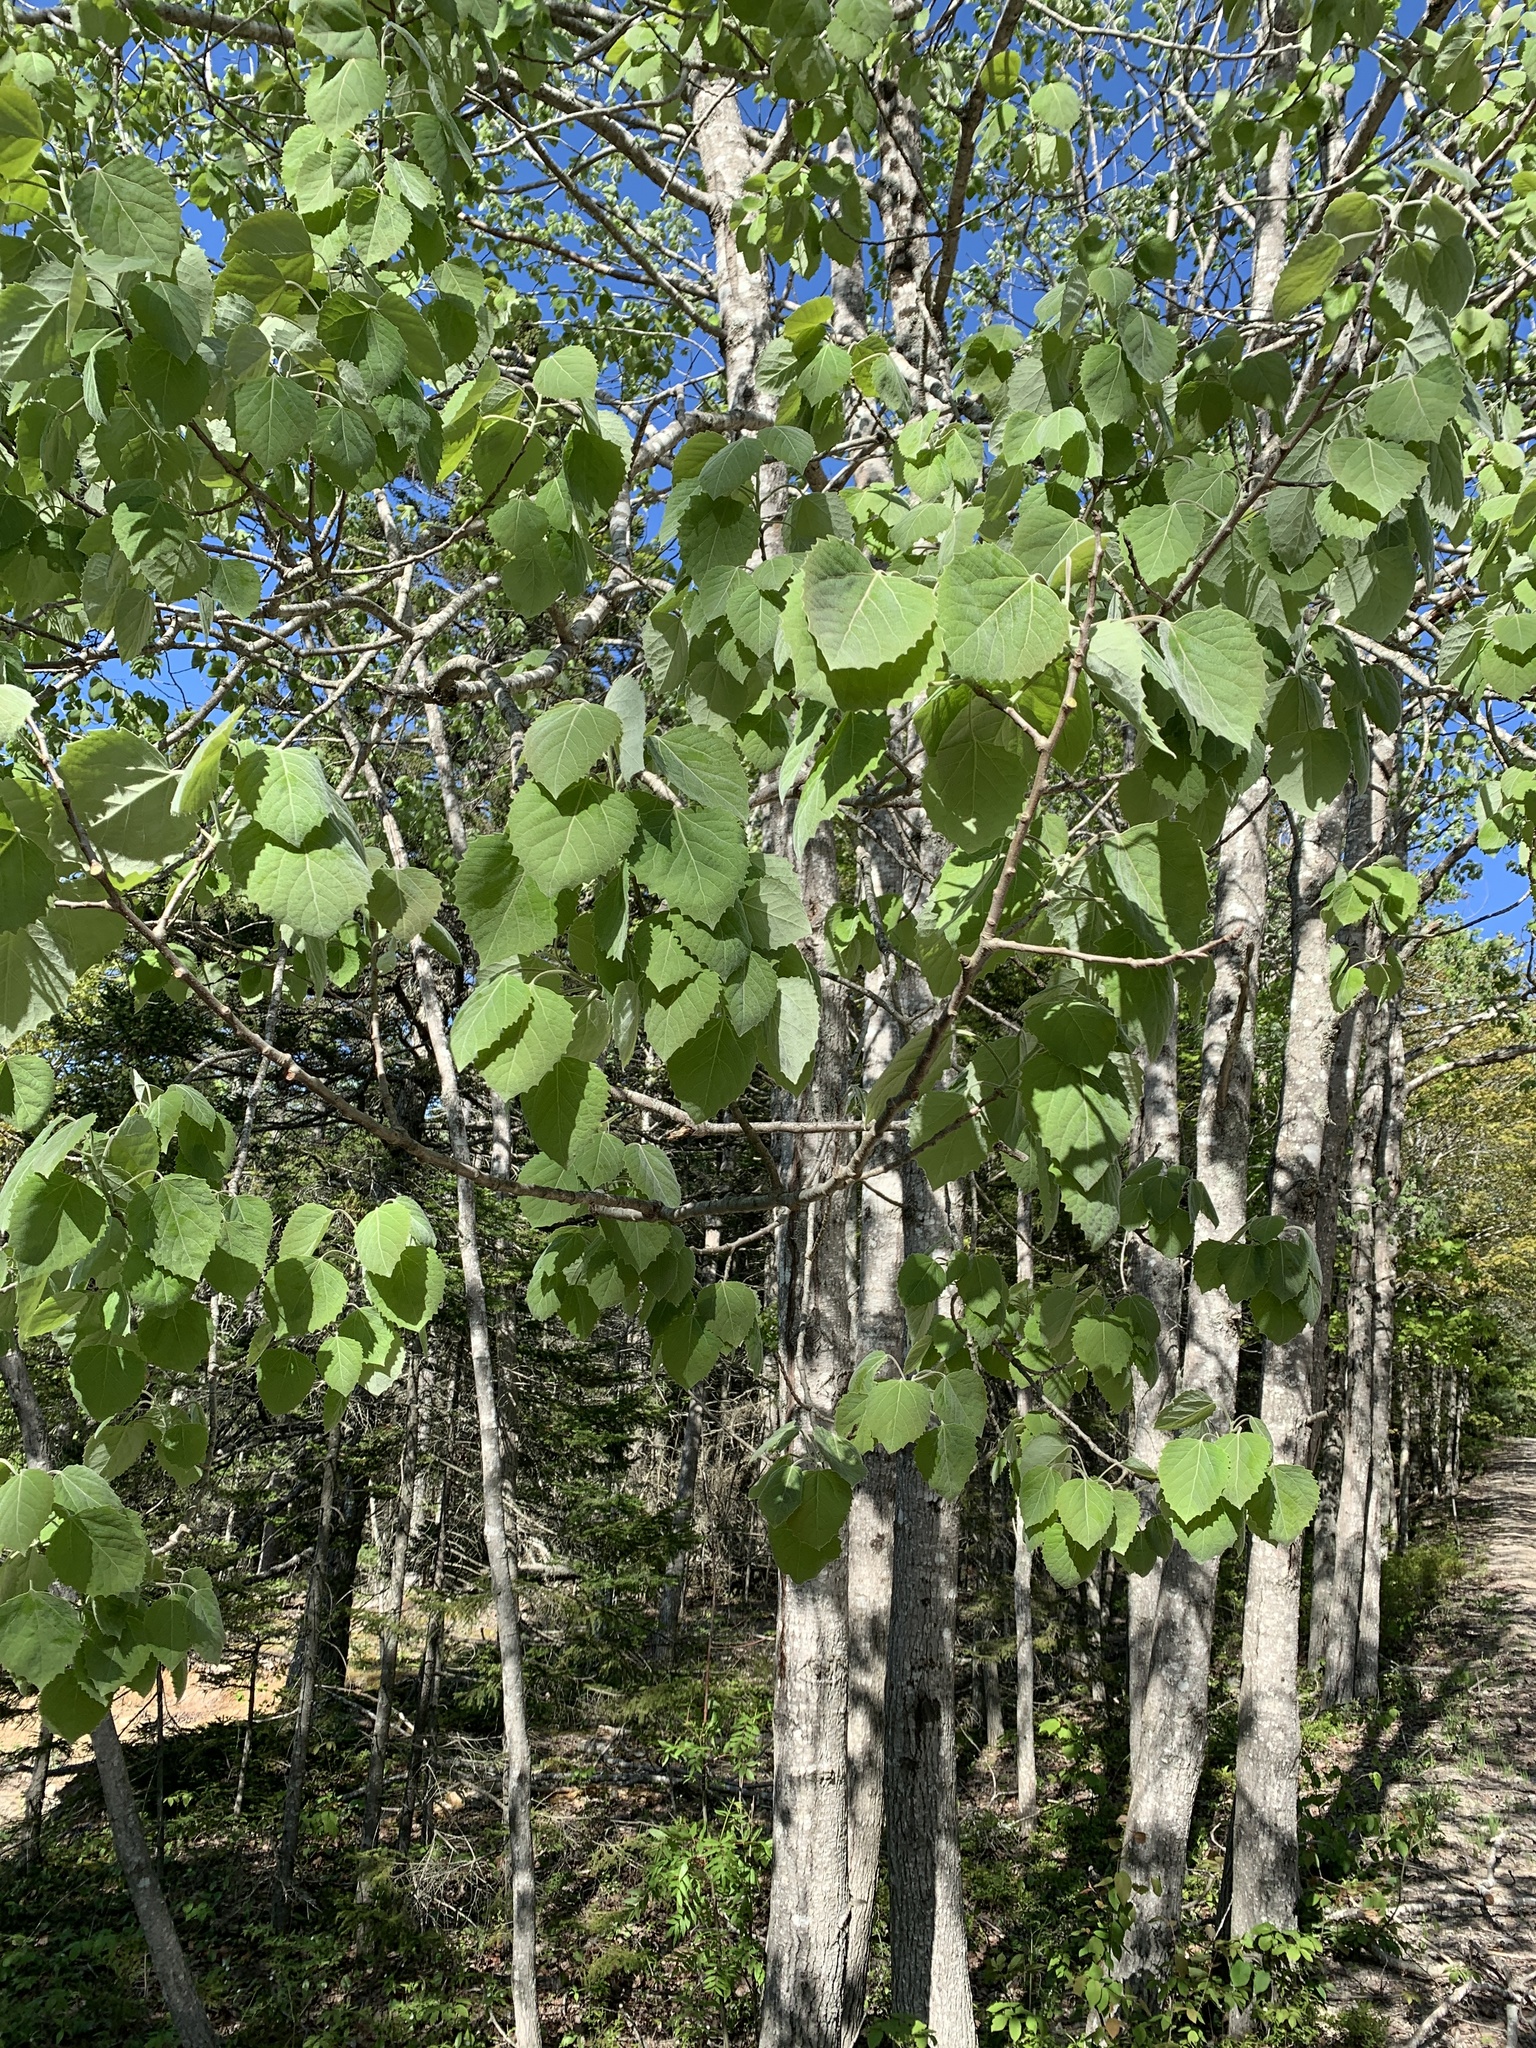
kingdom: Plantae
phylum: Tracheophyta
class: Magnoliopsida
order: Malpighiales
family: Salicaceae
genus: Populus
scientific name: Populus grandidentata
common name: Bigtooth aspen
